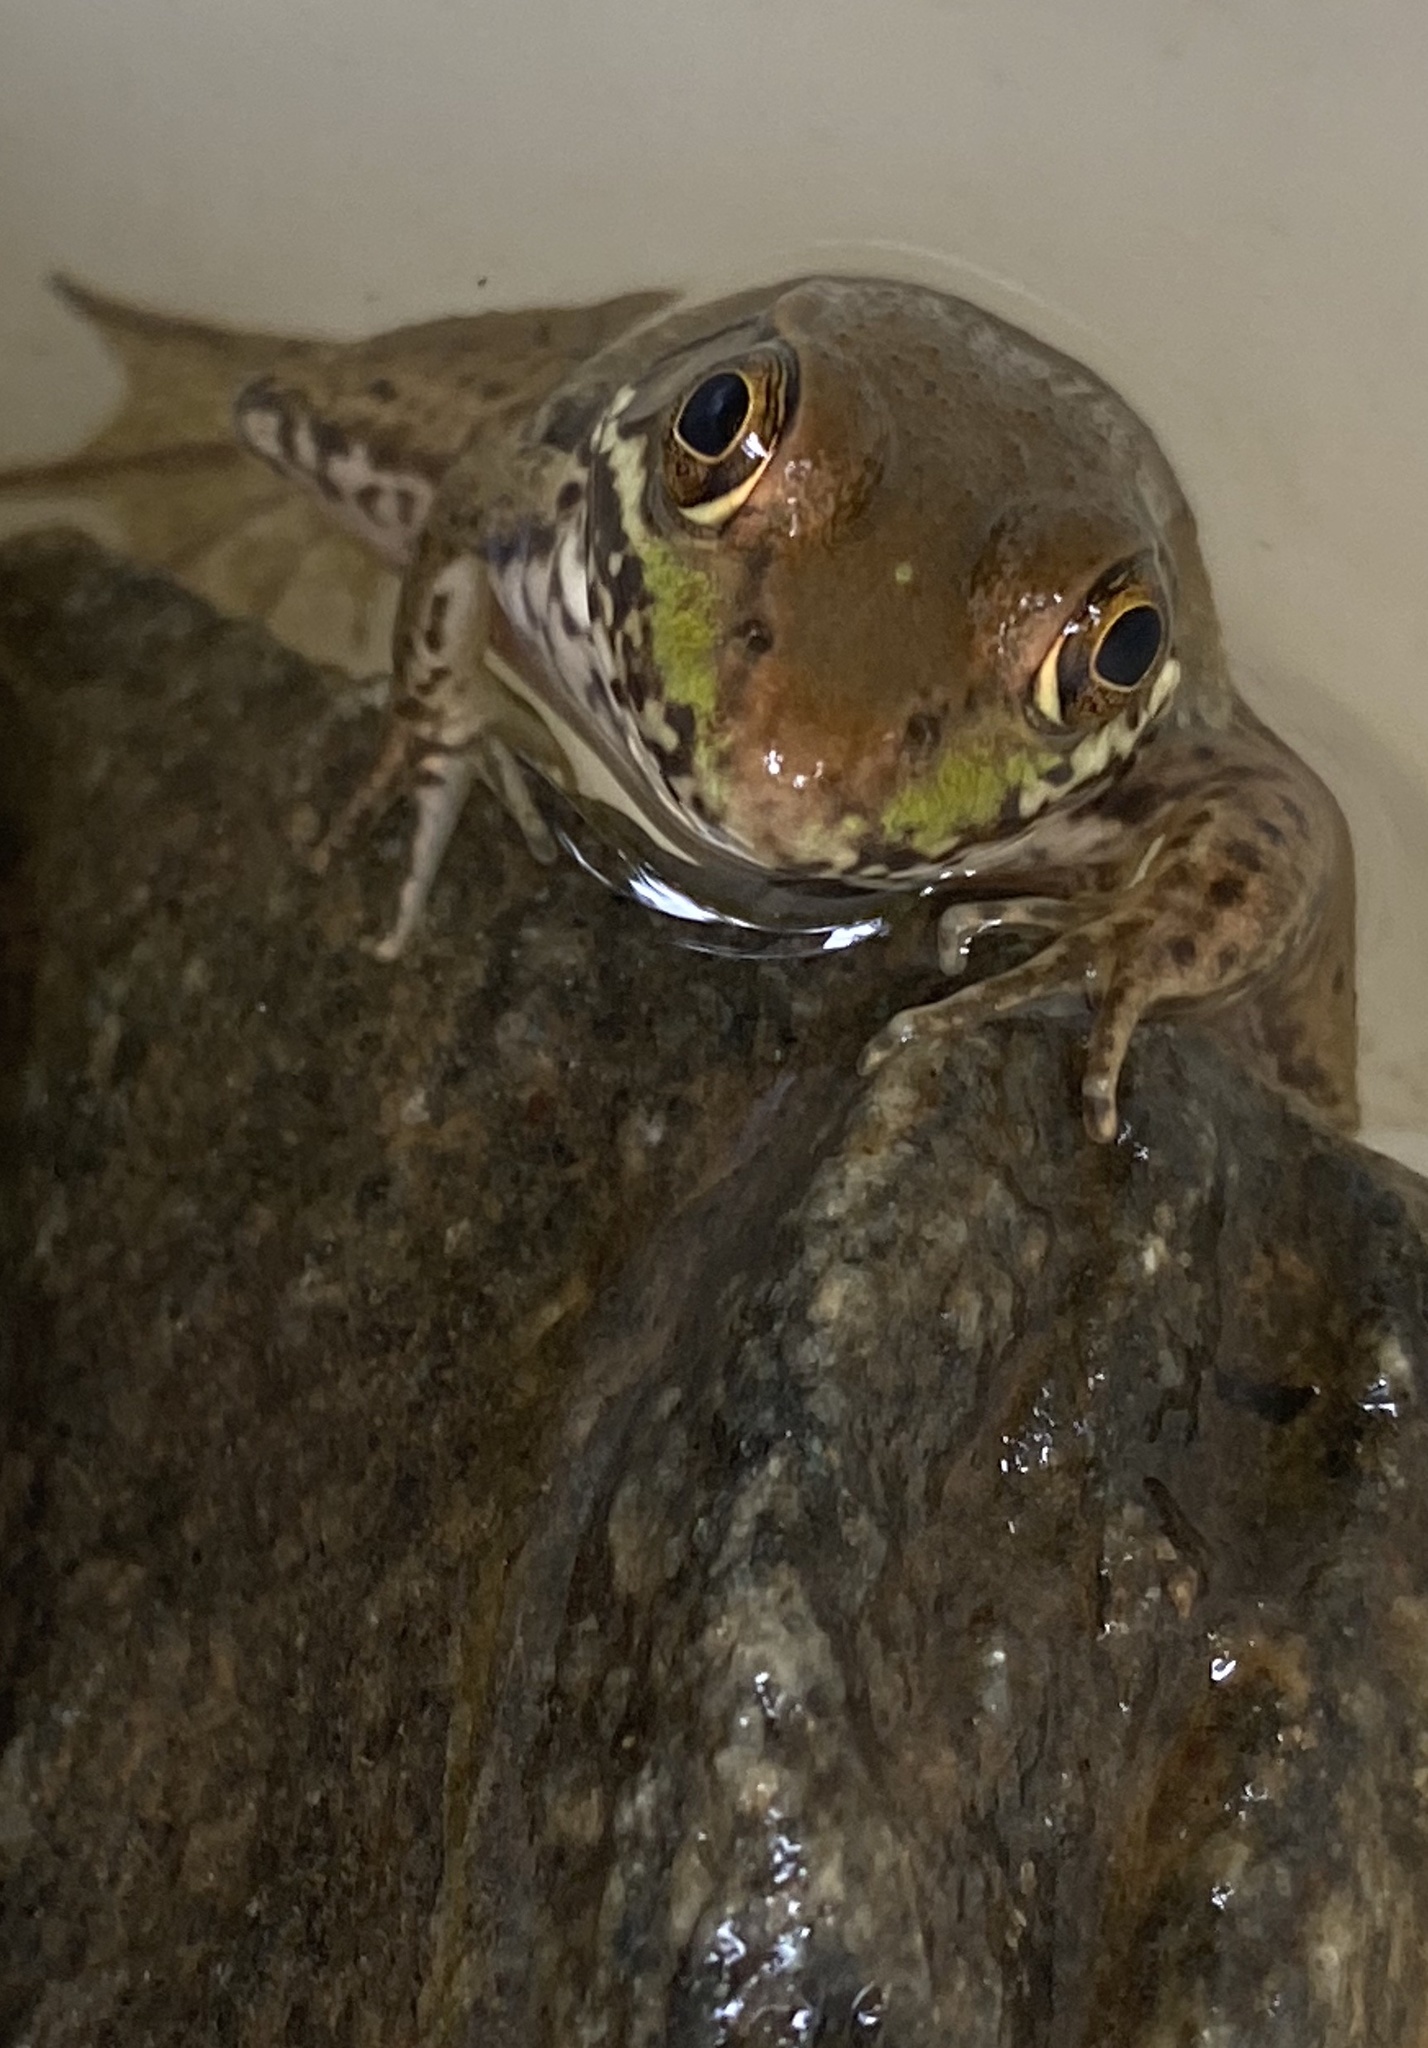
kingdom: Animalia
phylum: Chordata
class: Amphibia
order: Anura
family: Ranidae
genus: Lithobates
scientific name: Lithobates clamitans
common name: Green frog
